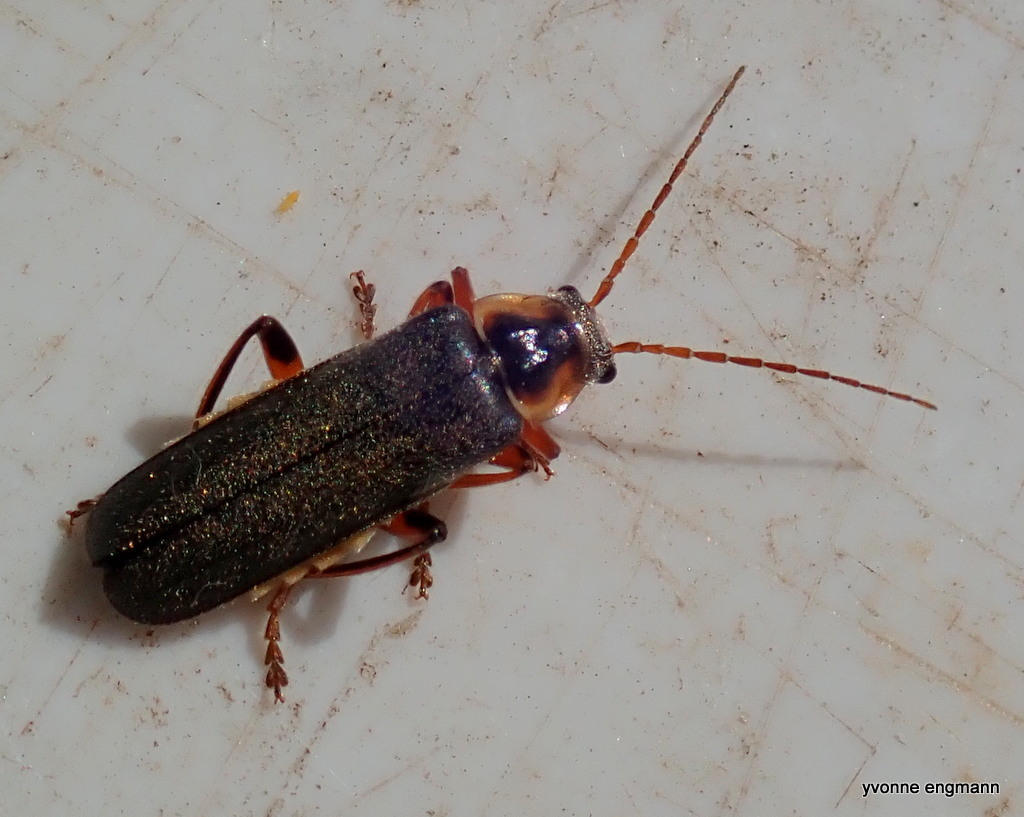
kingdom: Animalia
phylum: Arthropoda
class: Insecta
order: Coleoptera
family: Cantharidae
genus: Cantharis
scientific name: Cantharis nigricans
